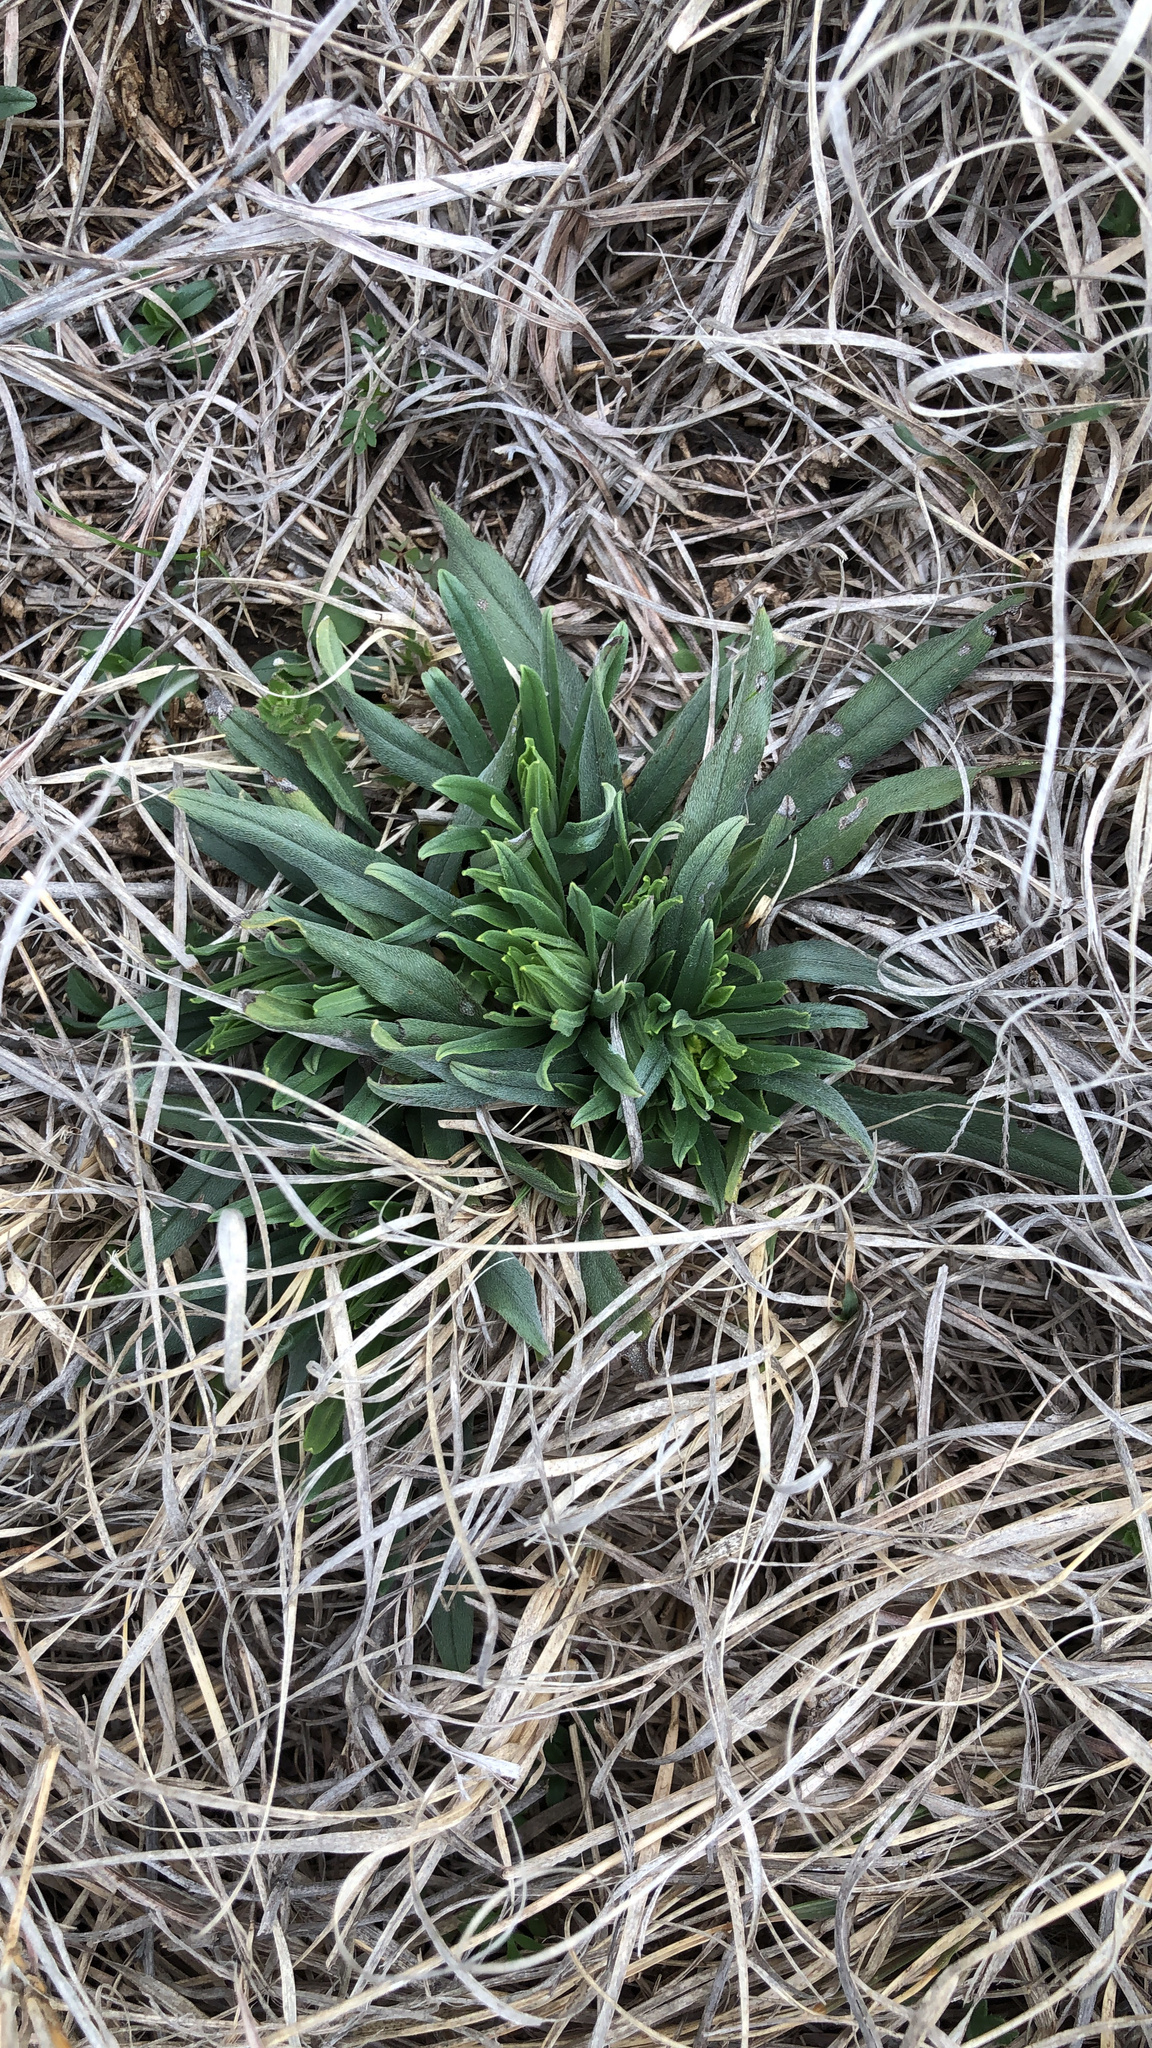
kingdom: Plantae
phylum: Tracheophyta
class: Magnoliopsida
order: Boraginales
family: Boraginaceae
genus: Lithospermum
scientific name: Lithospermum incisum
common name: Fringed gromwell
